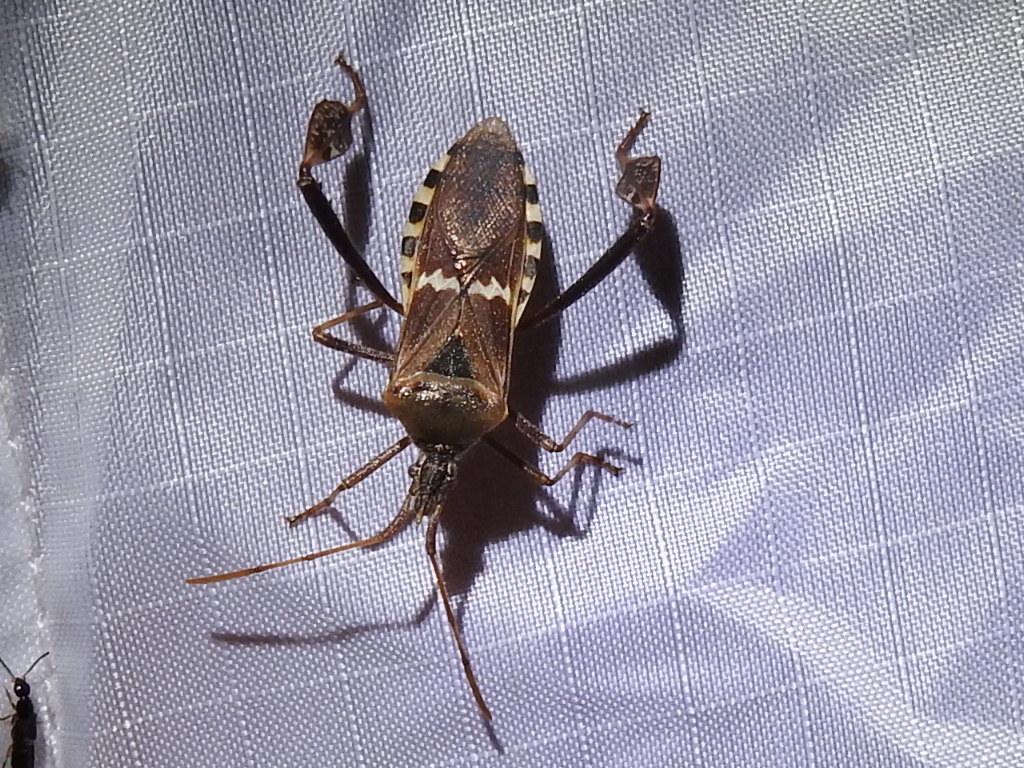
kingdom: Animalia
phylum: Arthropoda
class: Insecta
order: Hemiptera
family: Coreidae
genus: Leptoglossus
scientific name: Leptoglossus clypealis
